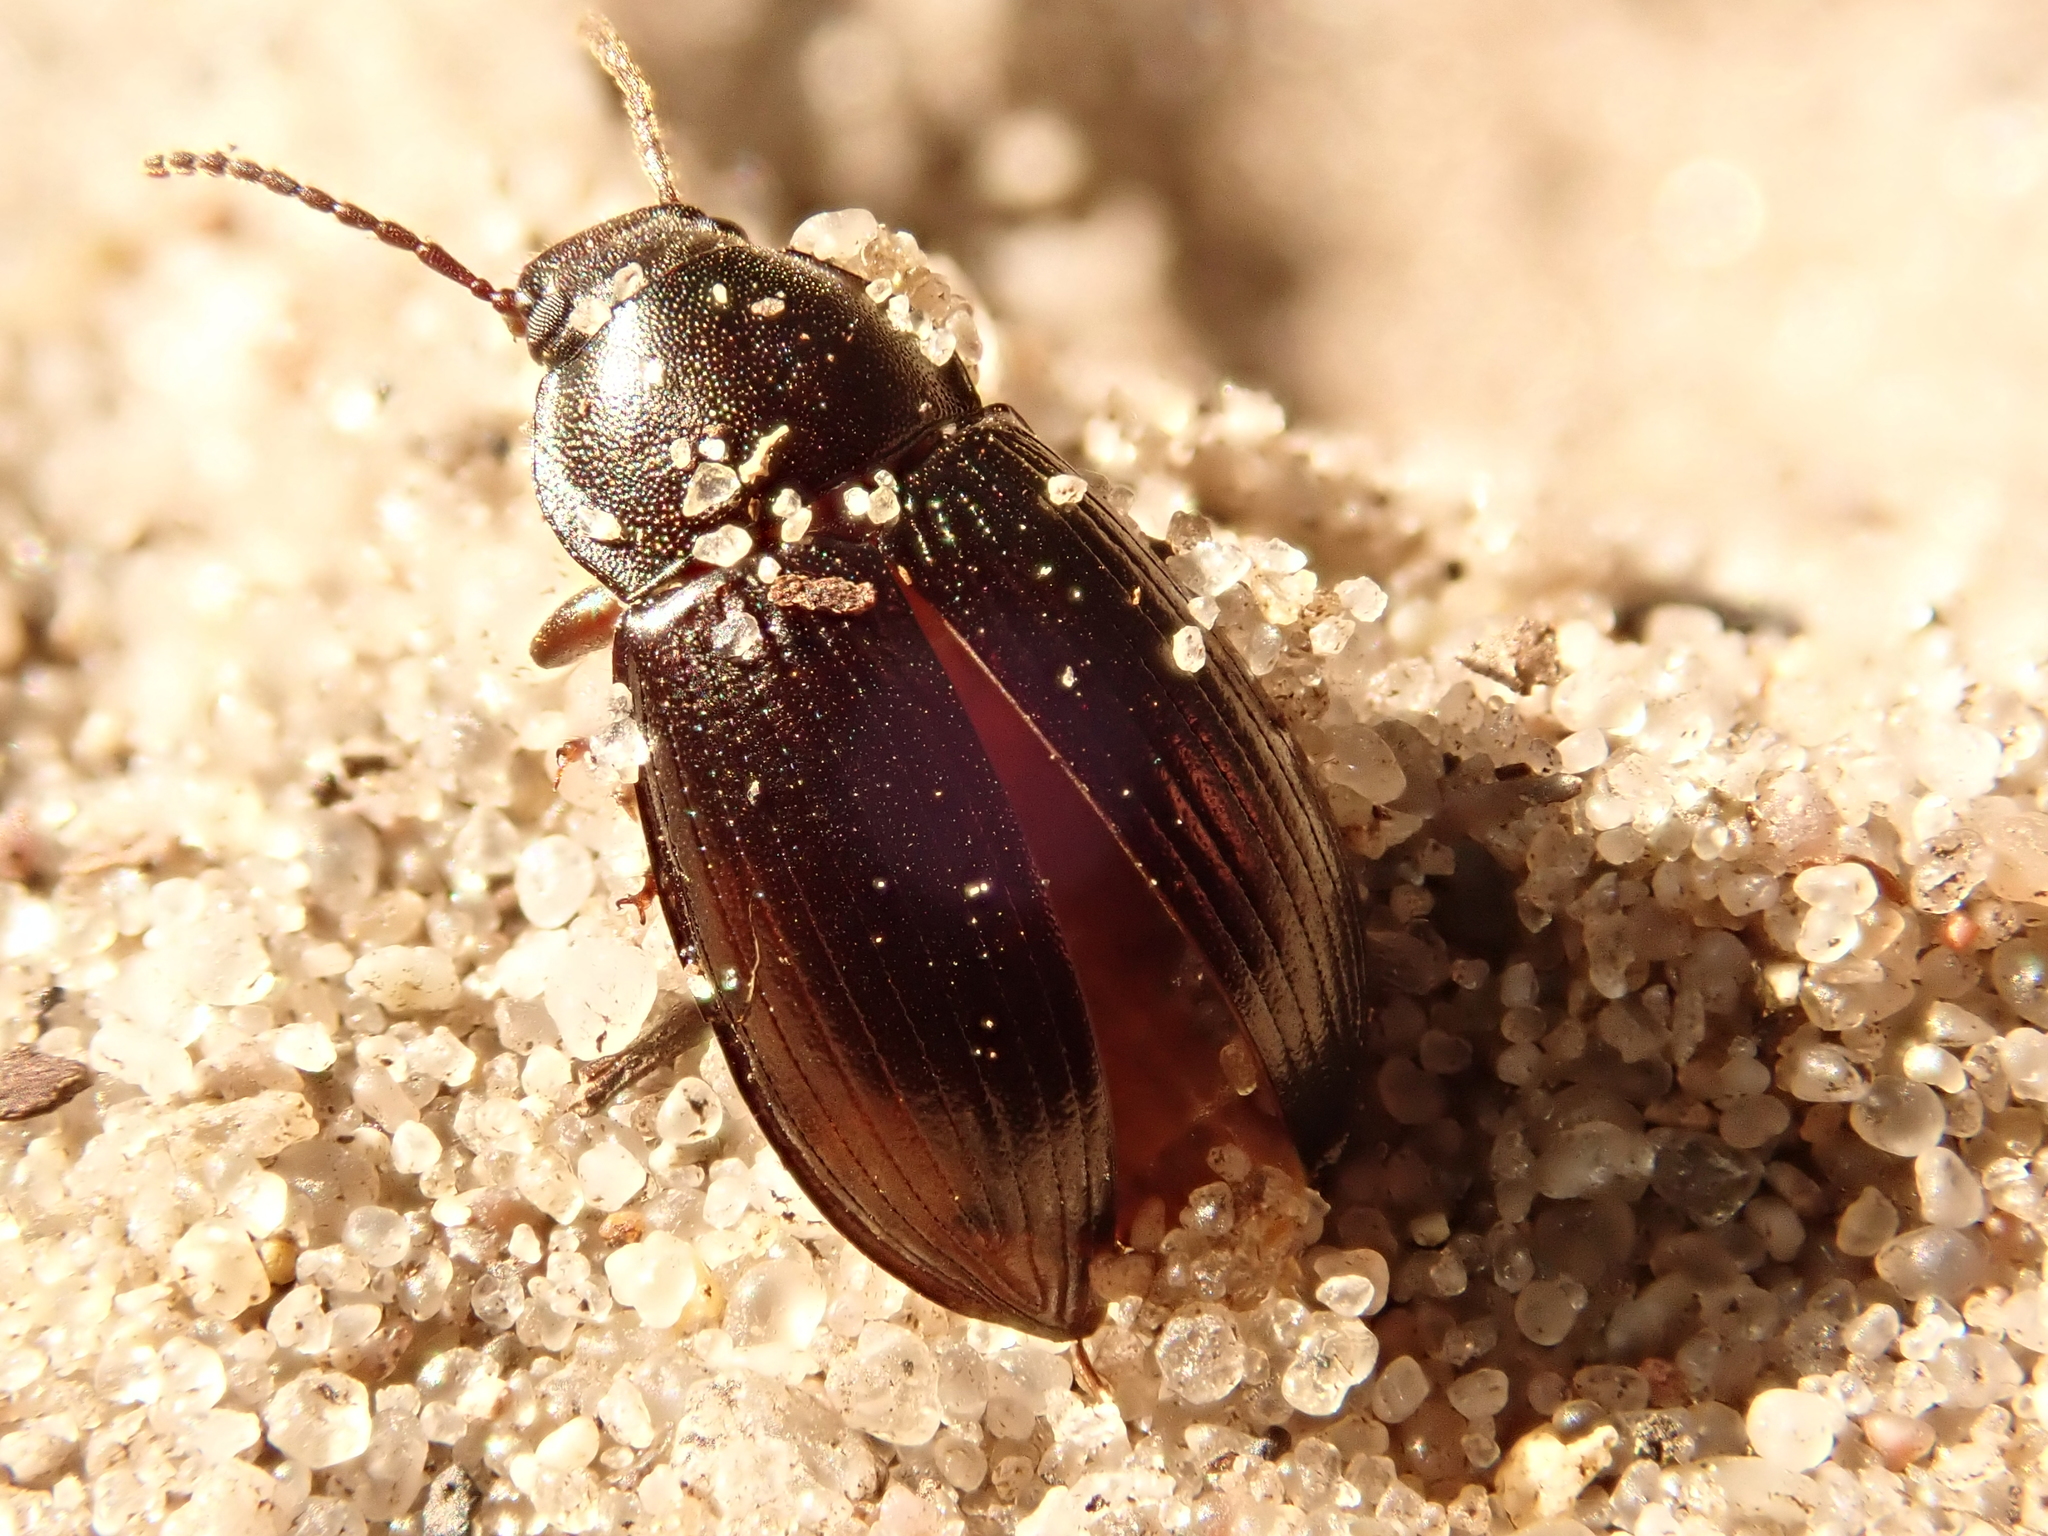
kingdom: Animalia
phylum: Arthropoda
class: Insecta
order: Coleoptera
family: Tenebrionidae
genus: Nalassus
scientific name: Nalassus dermestoides
